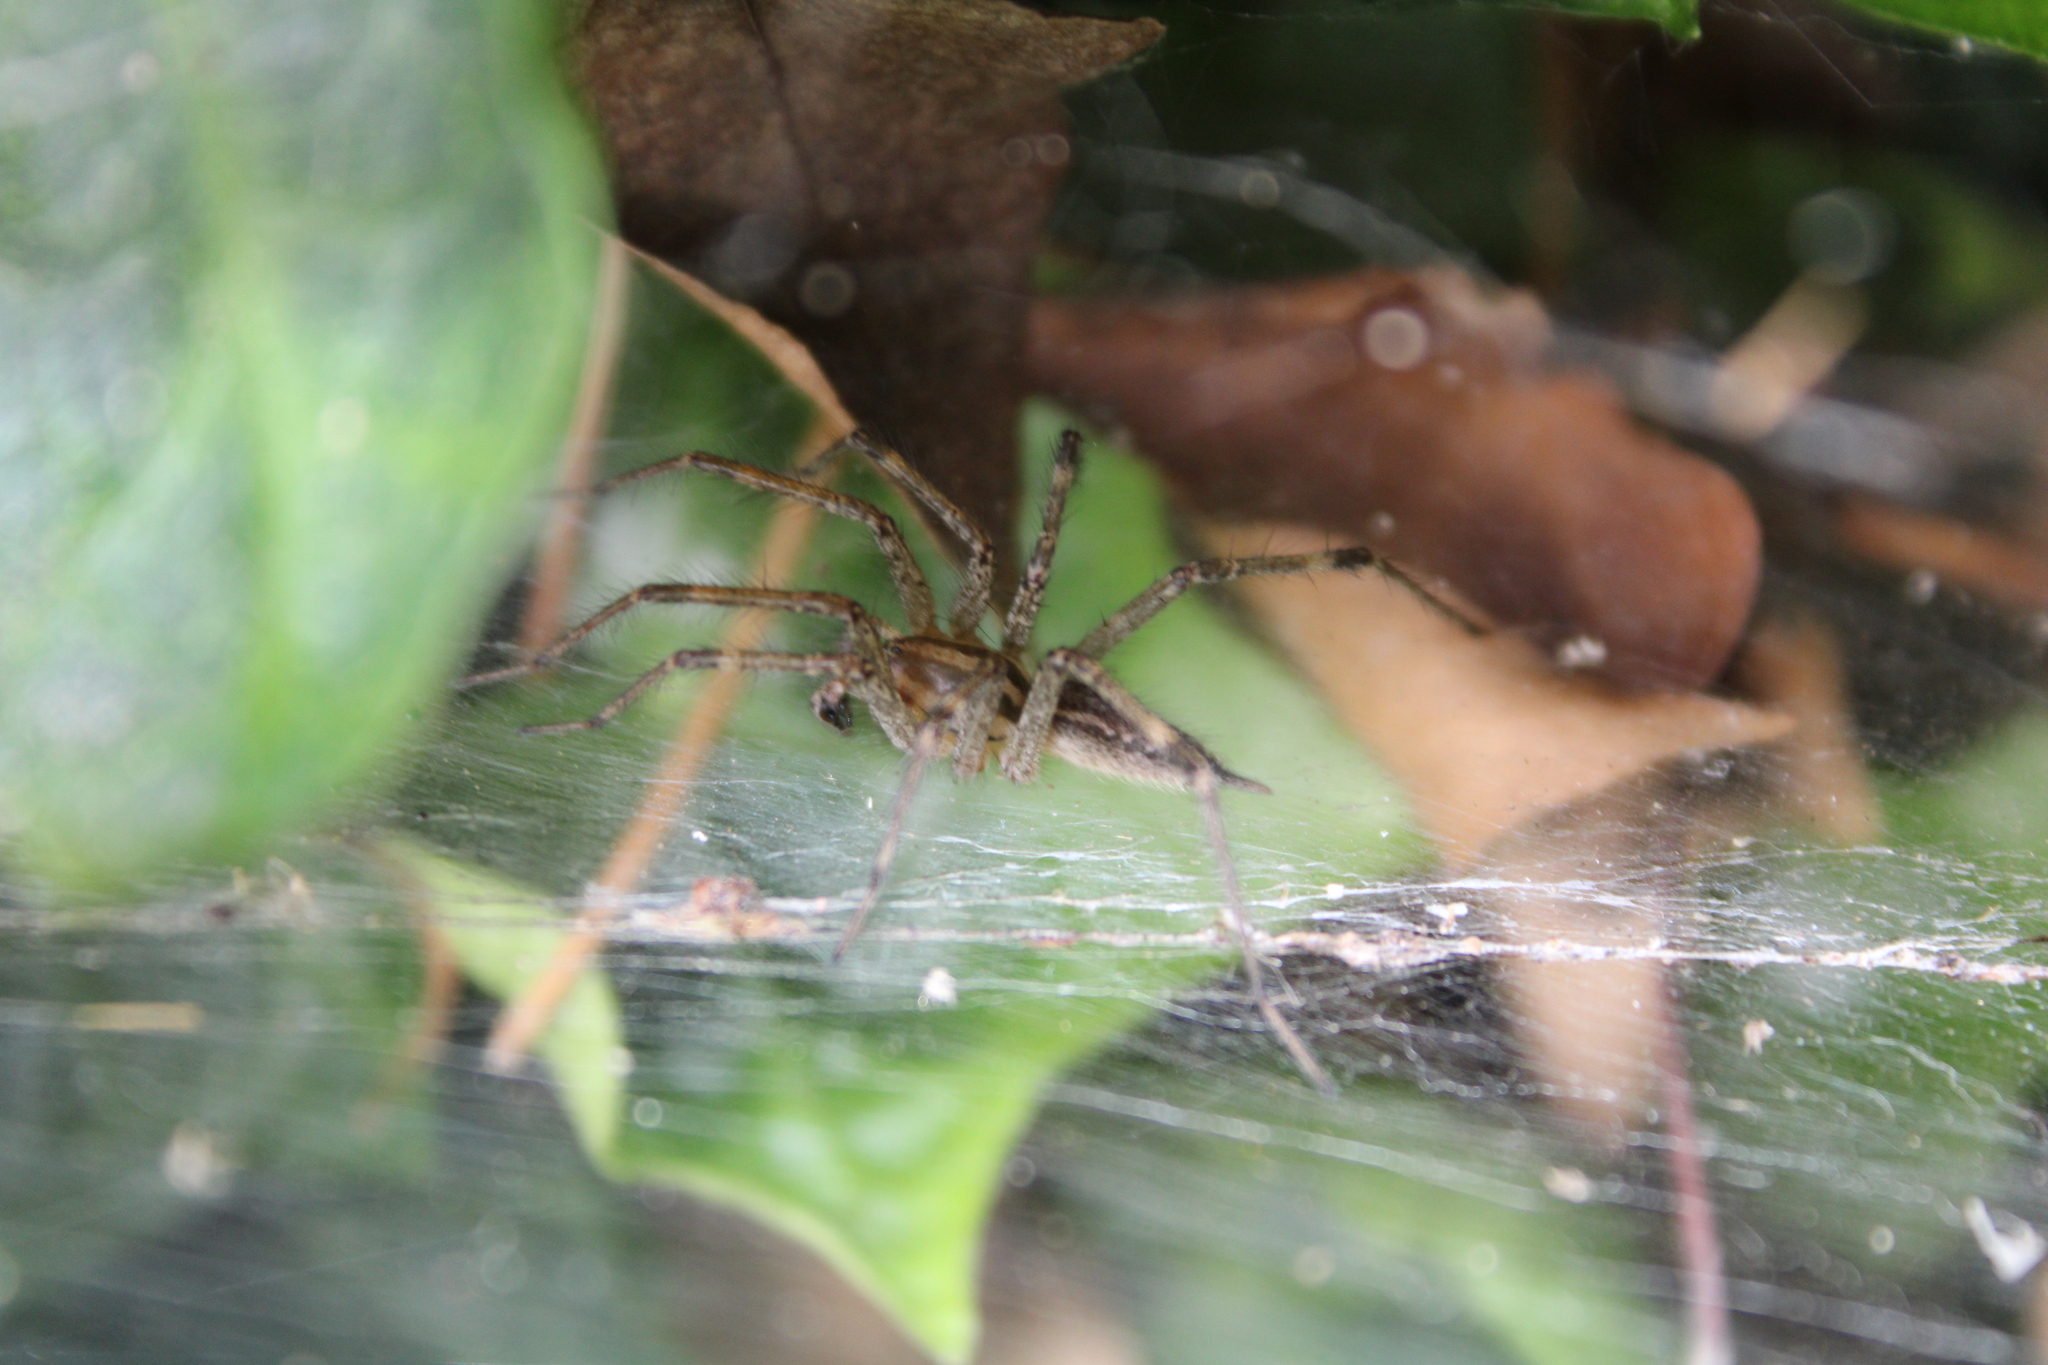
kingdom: Animalia
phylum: Arthropoda
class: Arachnida
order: Araneae
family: Agelenidae
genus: Agelenopsis
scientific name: Agelenopsis
